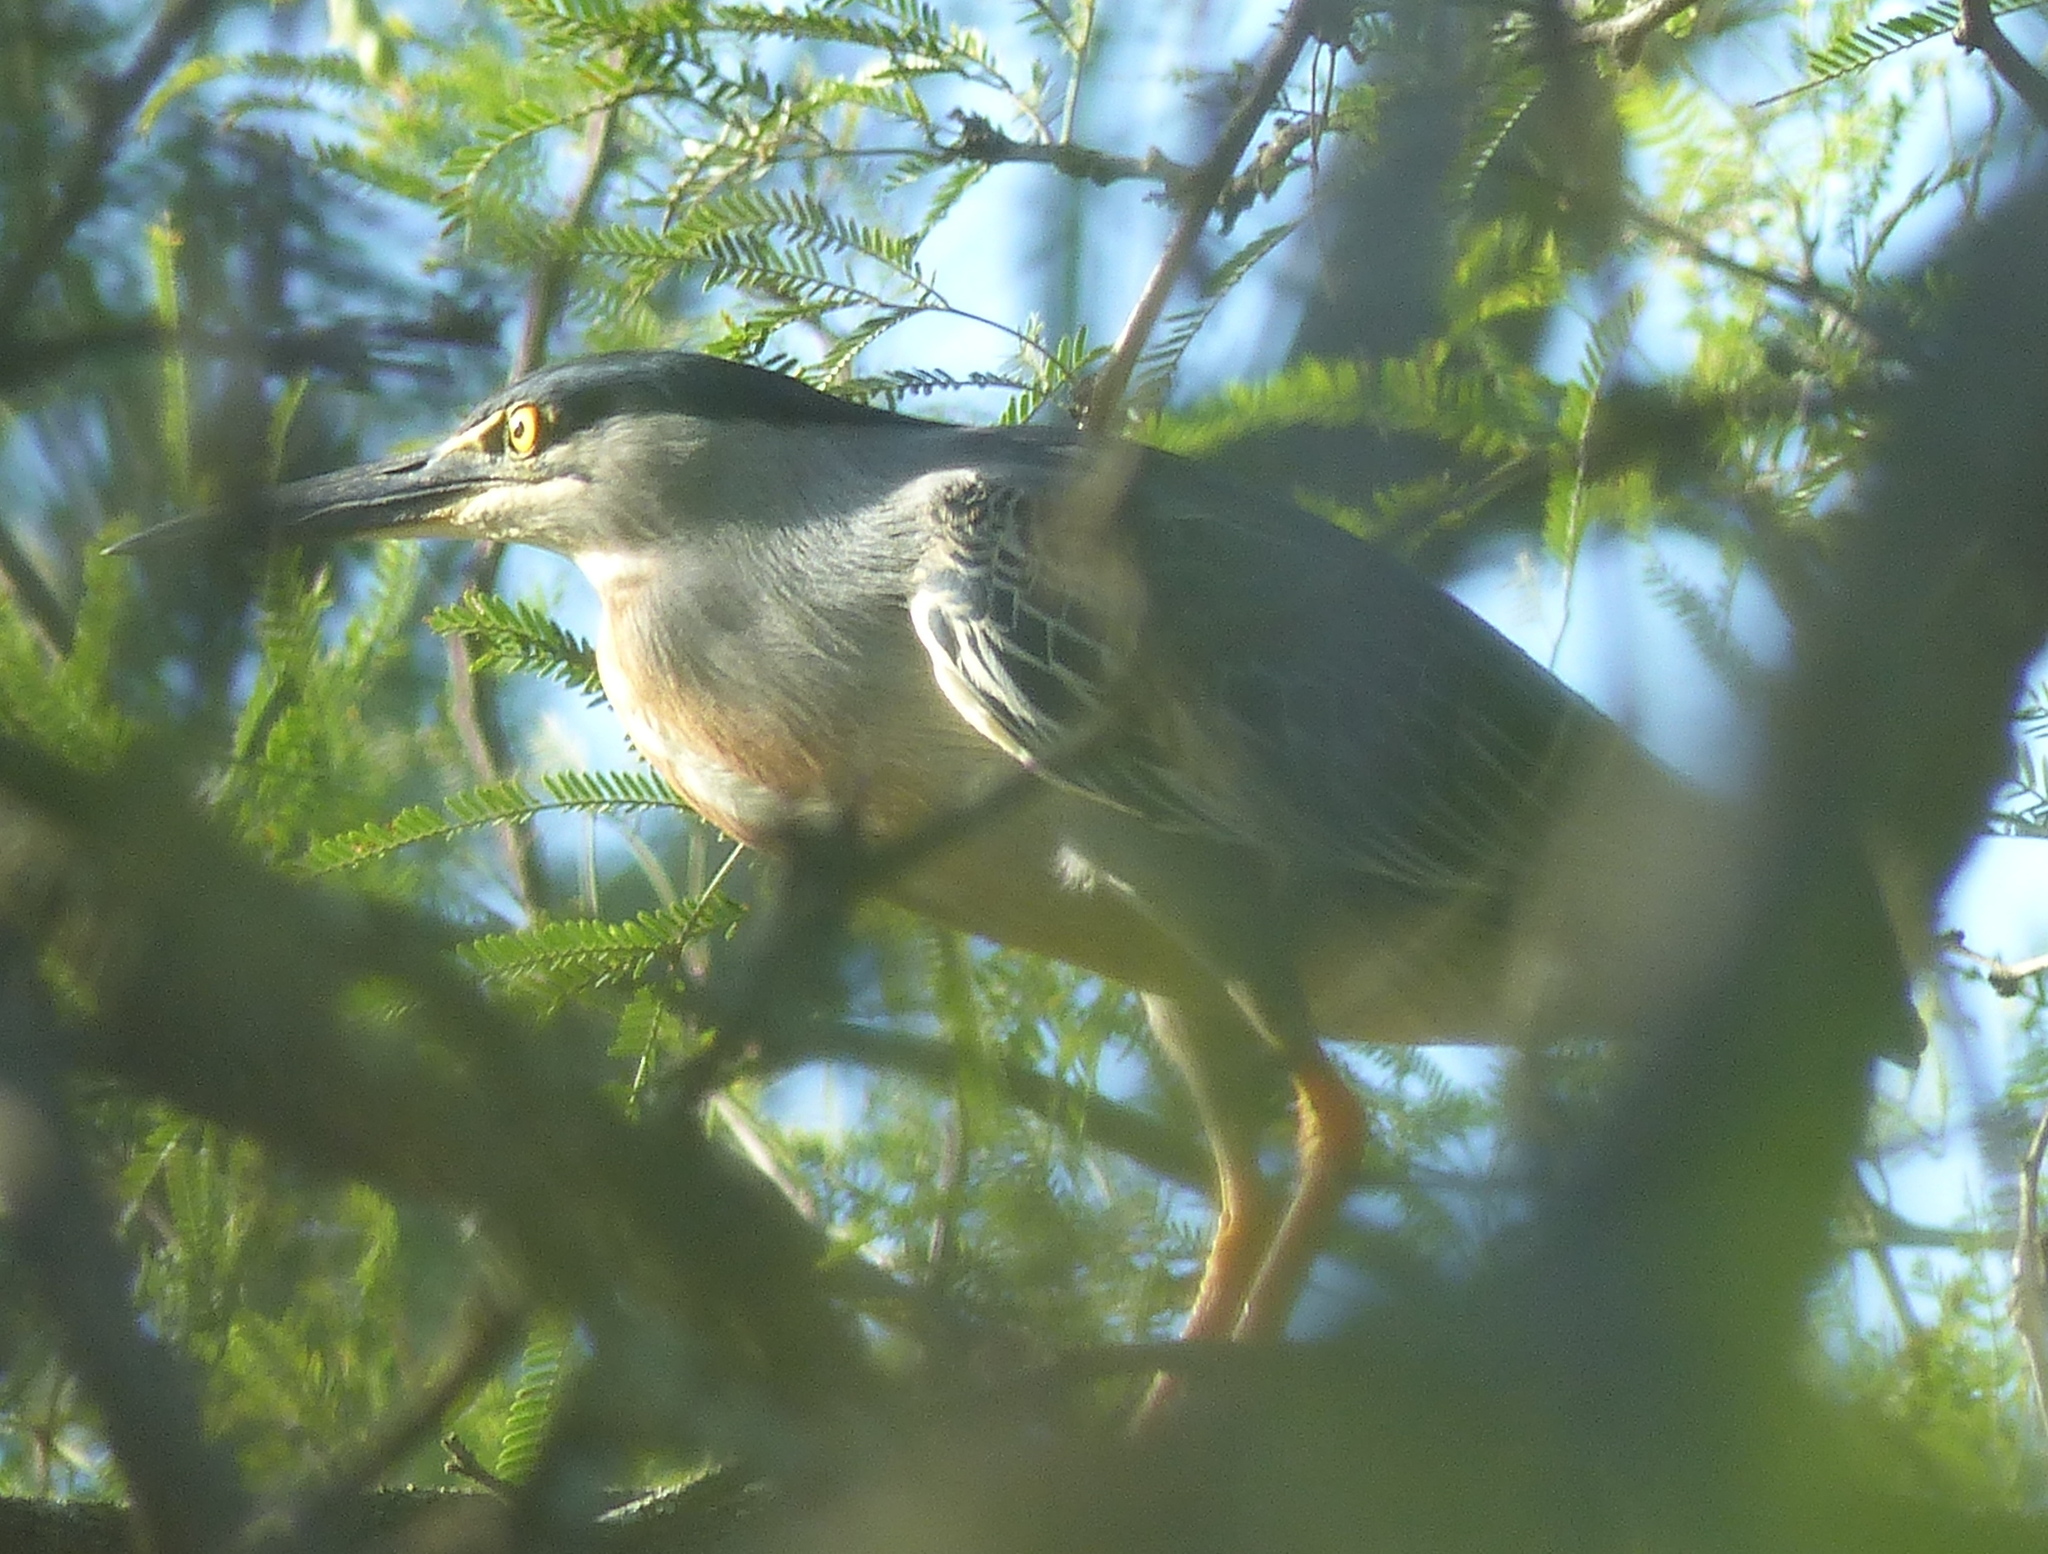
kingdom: Animalia
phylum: Chordata
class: Aves
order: Pelecaniformes
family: Ardeidae
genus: Butorides
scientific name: Butorides striata
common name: Striated heron
